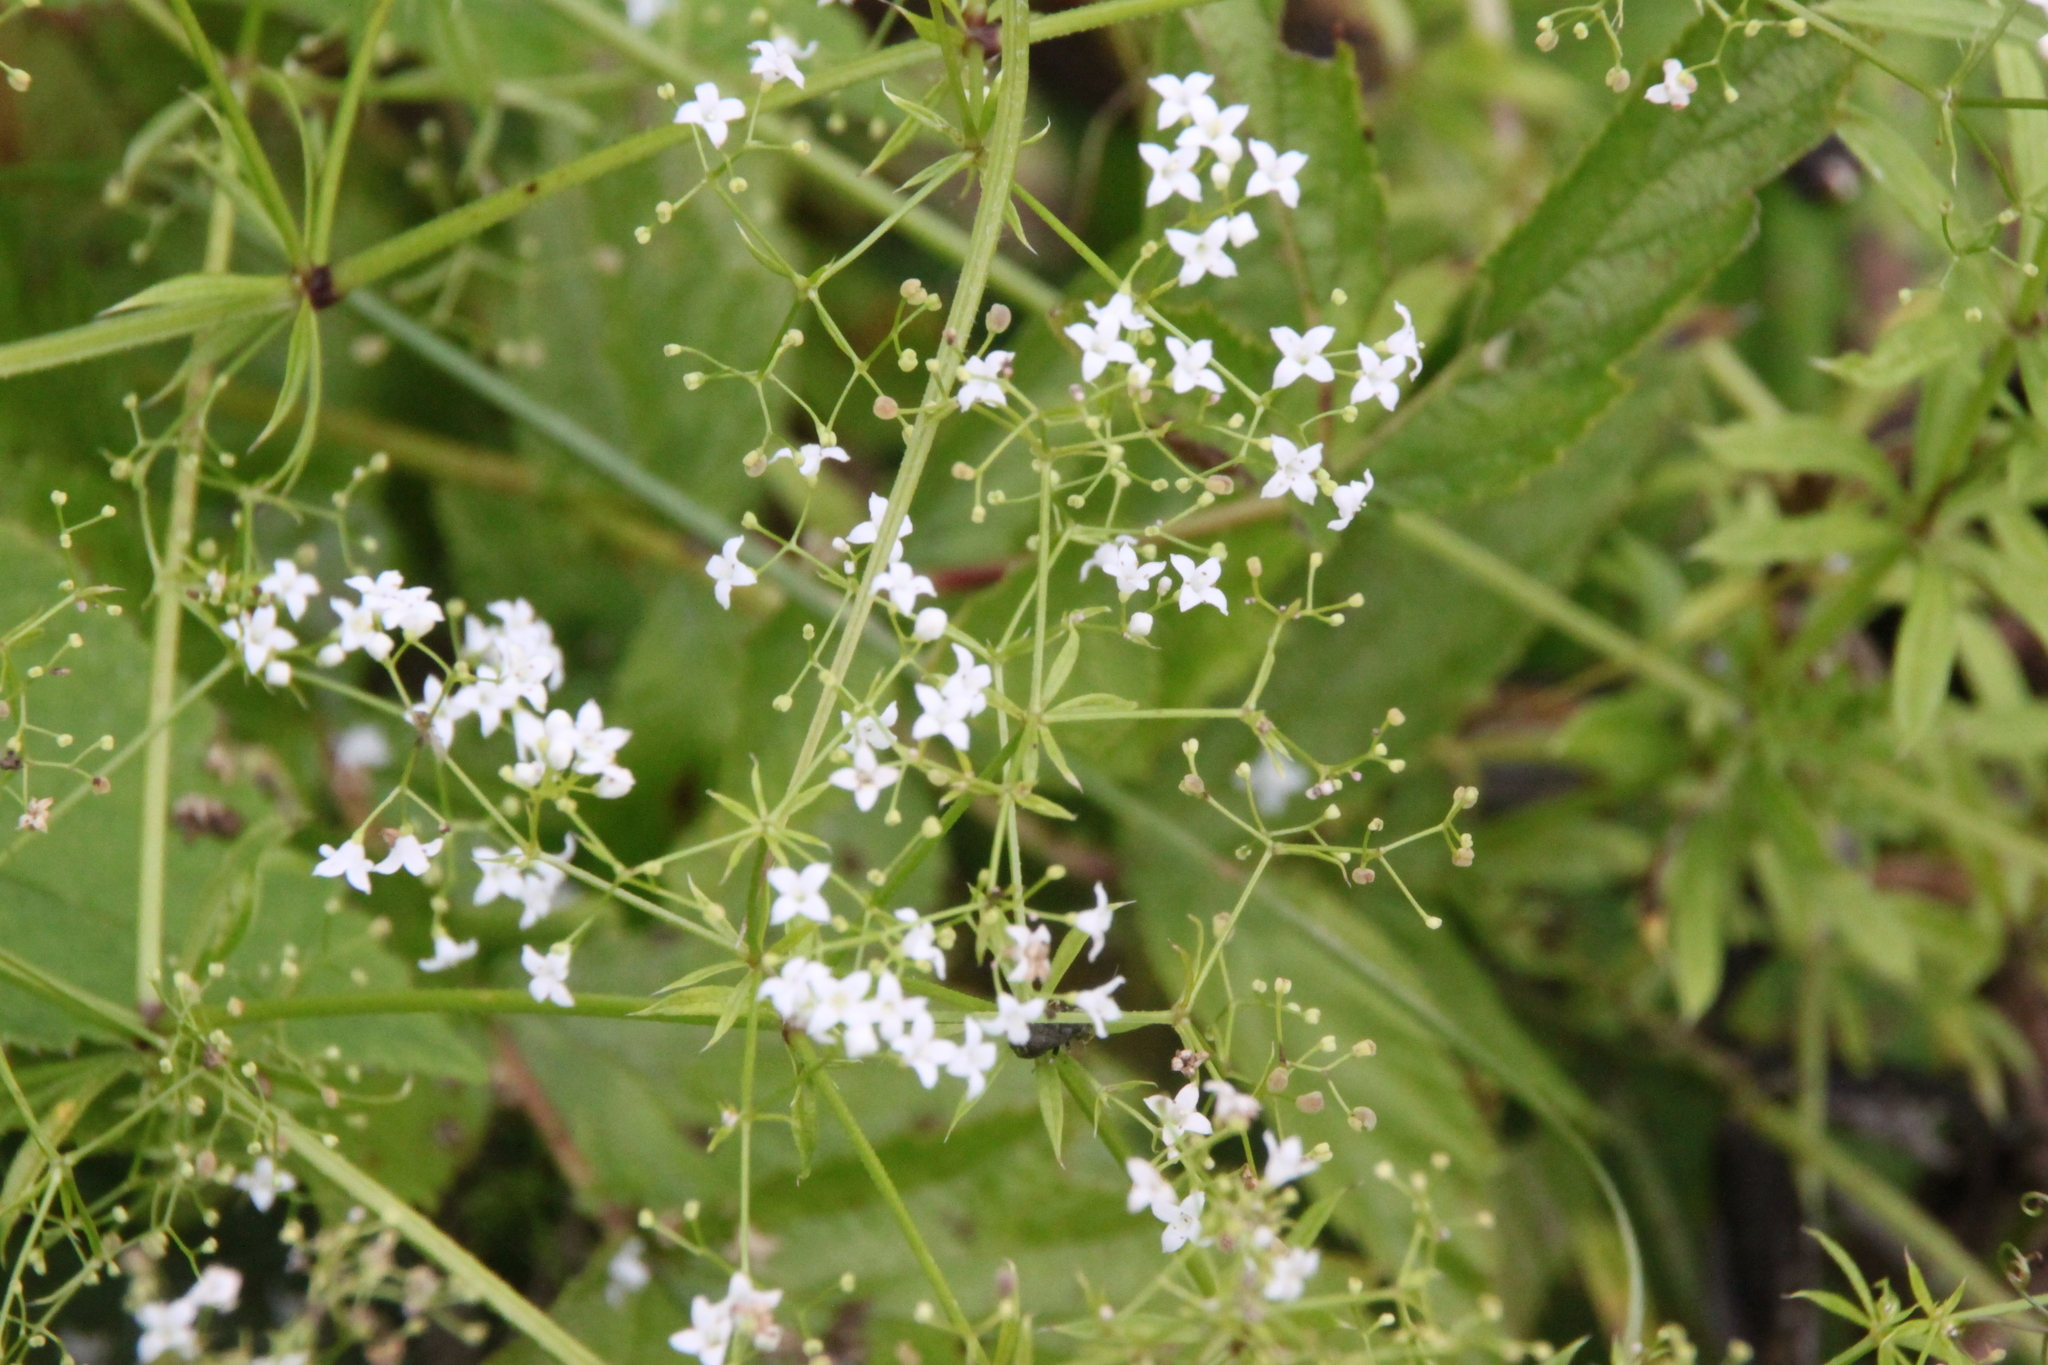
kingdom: Plantae
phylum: Tracheophyta
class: Magnoliopsida
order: Gentianales
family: Rubiaceae
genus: Galium
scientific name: Galium rivale
